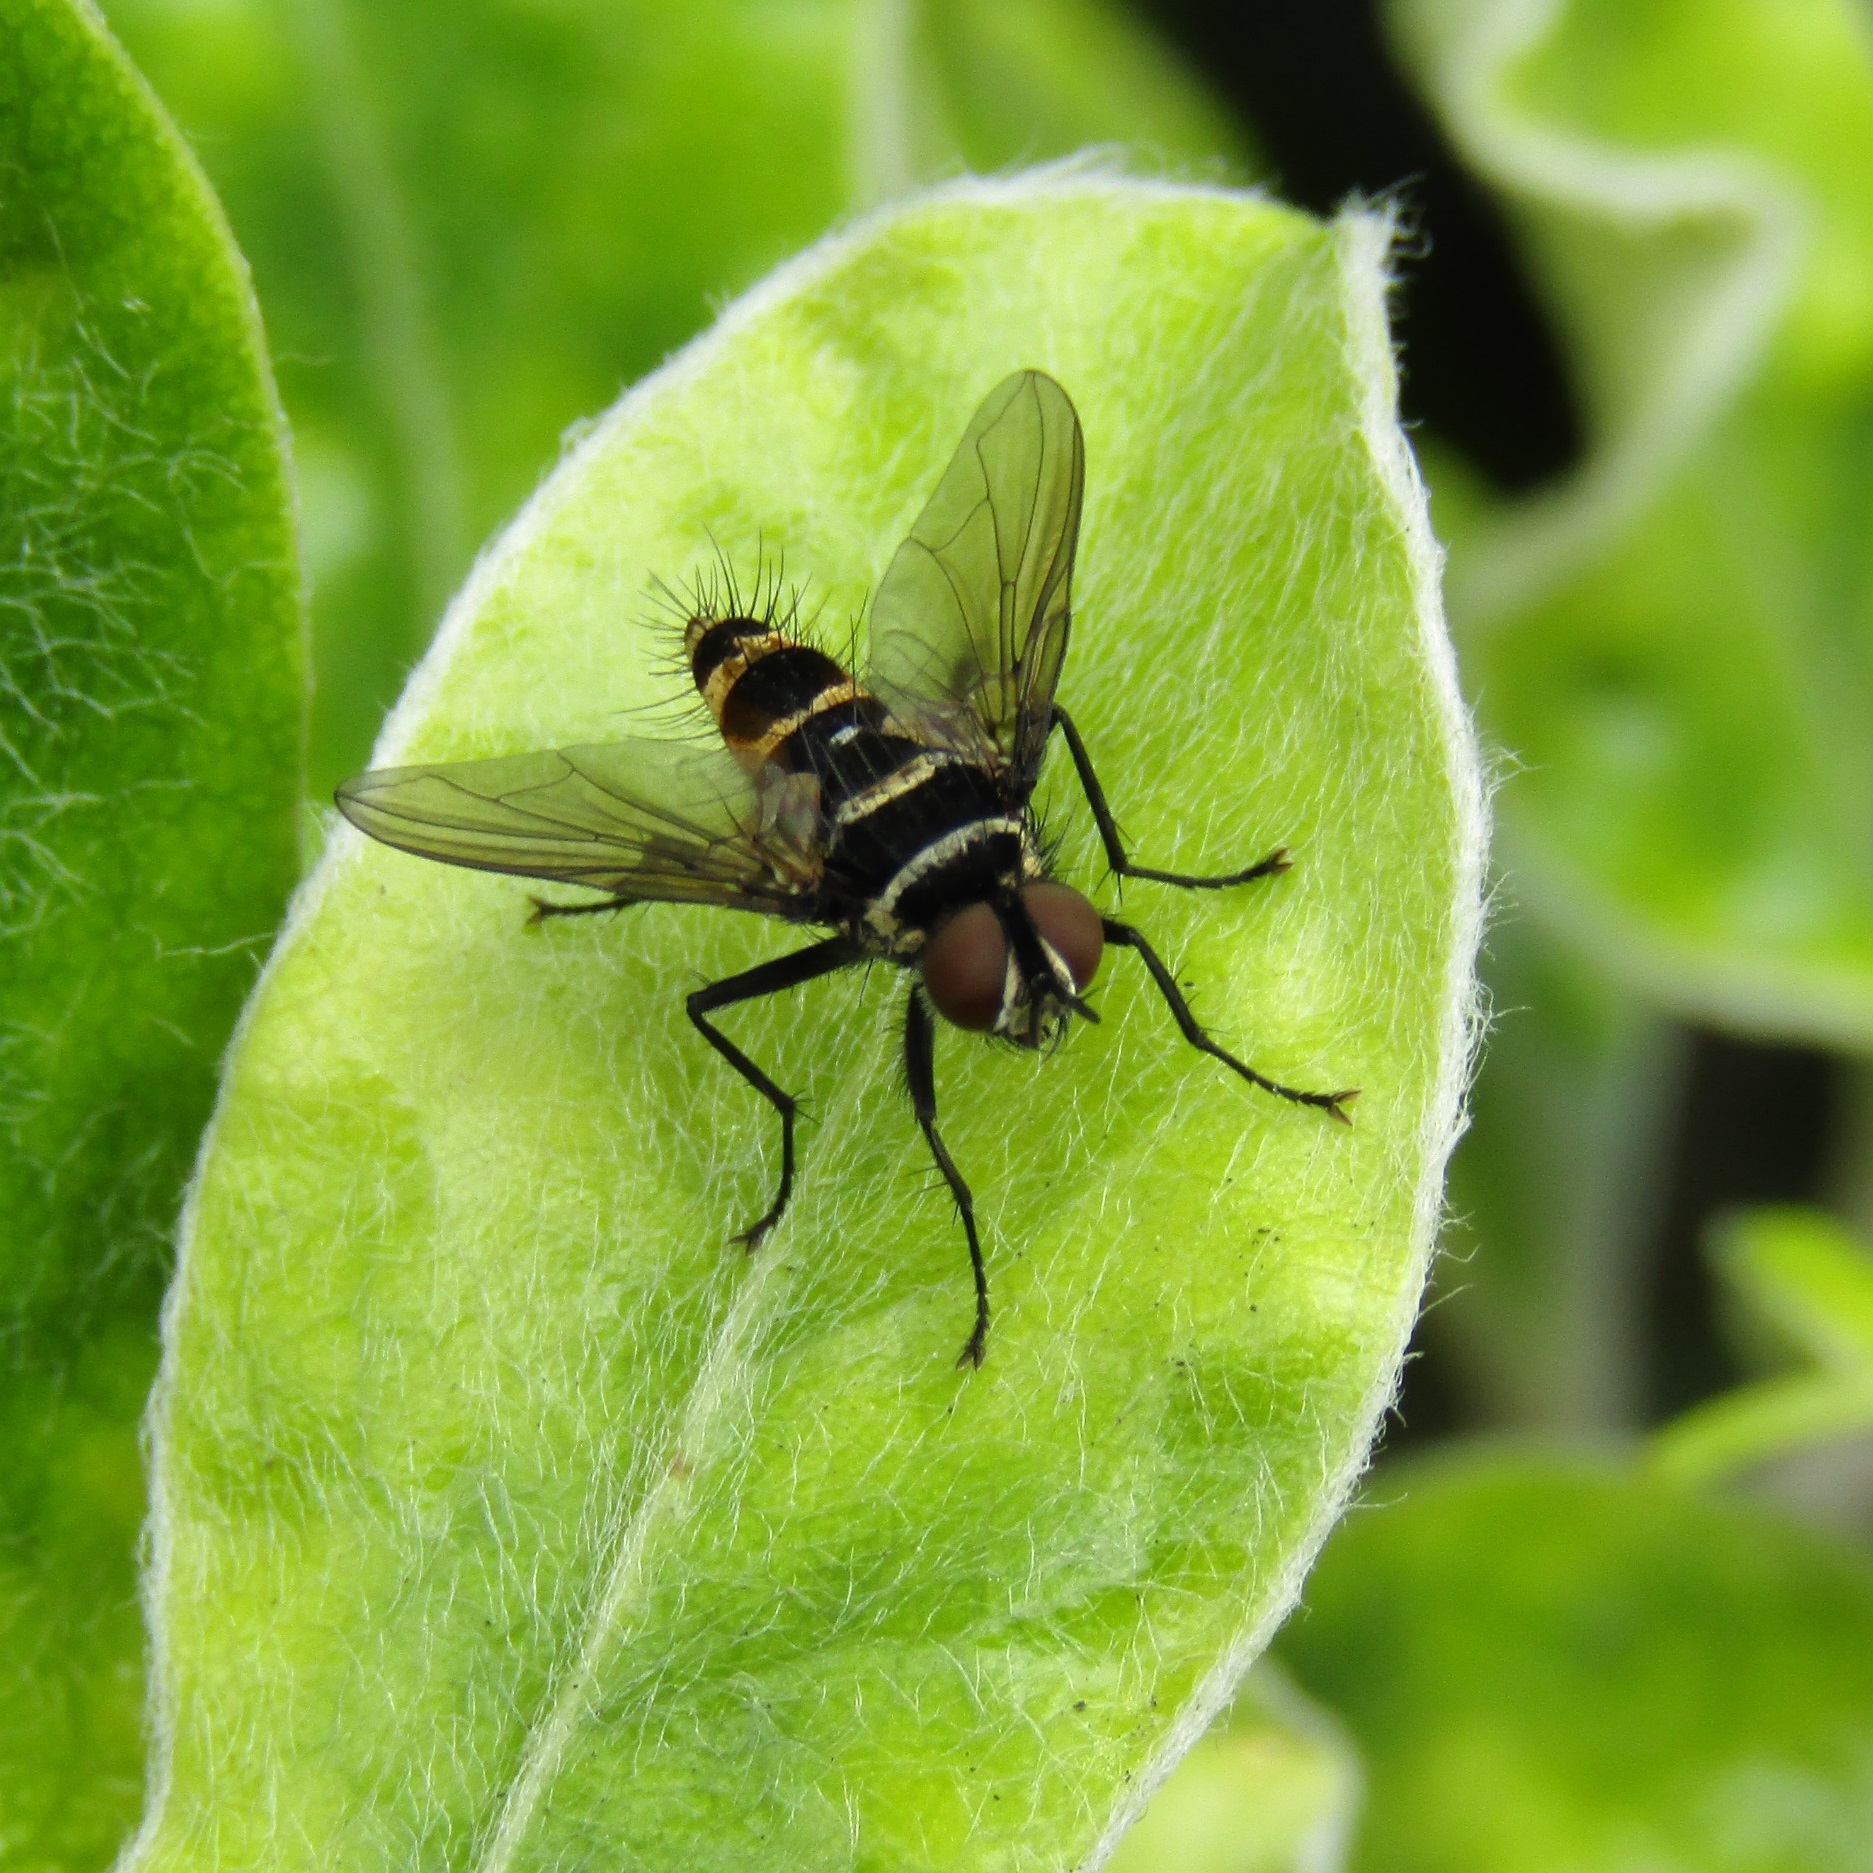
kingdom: Animalia
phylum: Arthropoda
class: Insecta
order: Diptera
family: Tachinidae
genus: Trigonospila
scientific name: Trigonospila brevifacies
